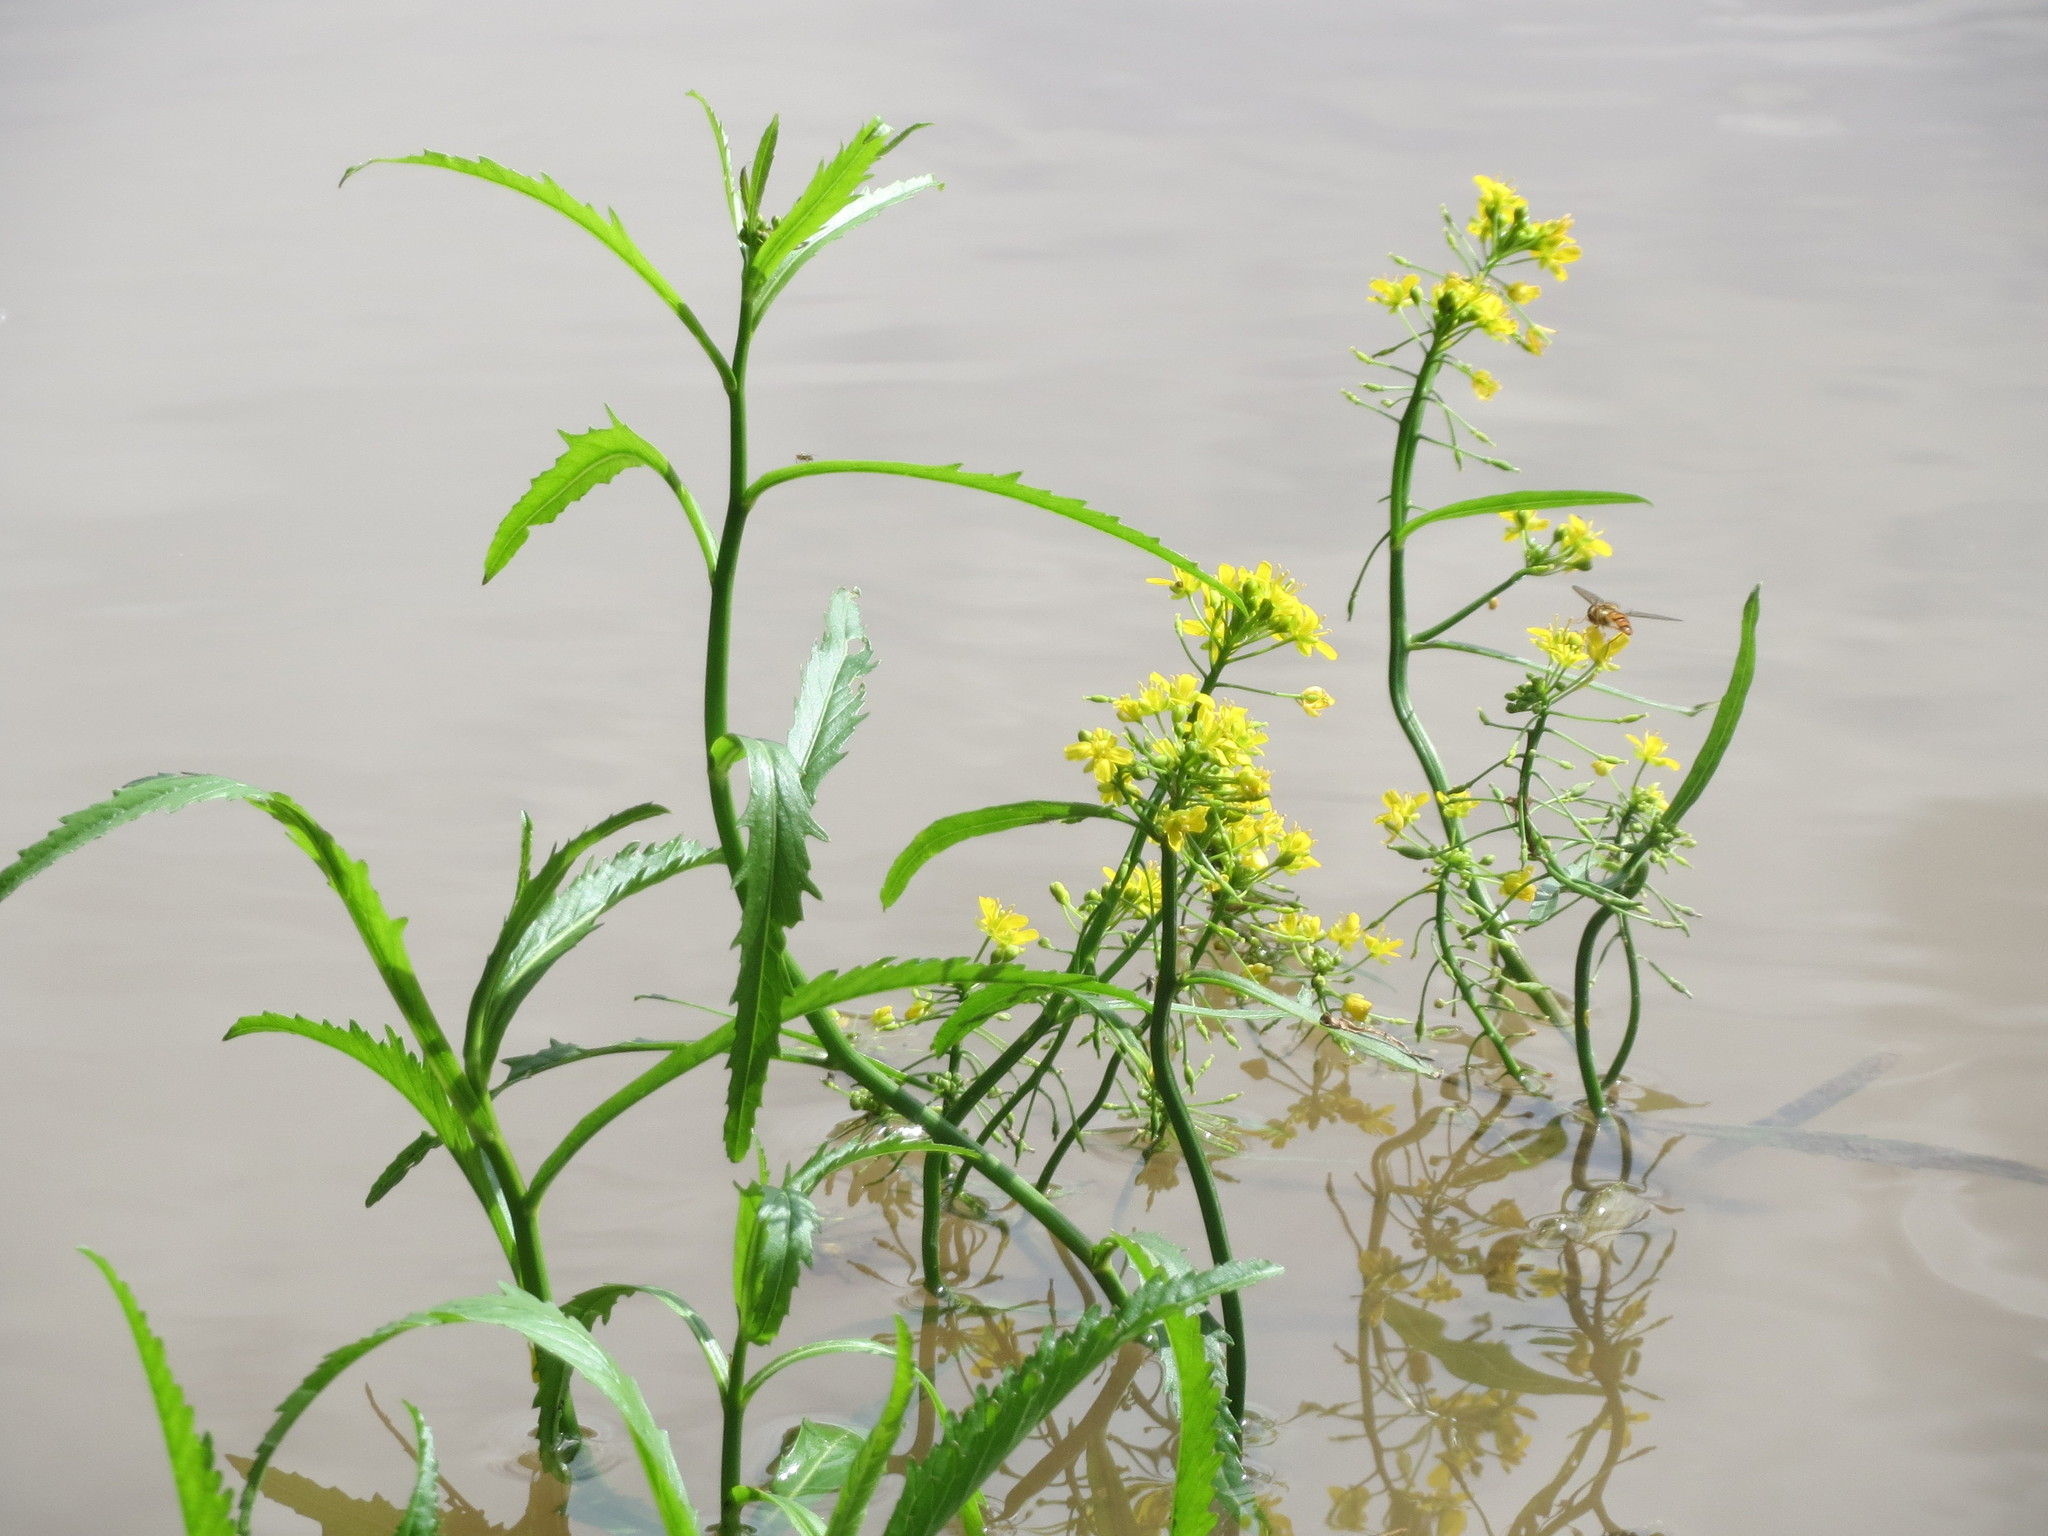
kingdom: Plantae
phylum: Tracheophyta
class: Magnoliopsida
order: Brassicales
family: Brassicaceae
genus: Rorippa
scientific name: Rorippa amphibia
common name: Great yellow-cress
